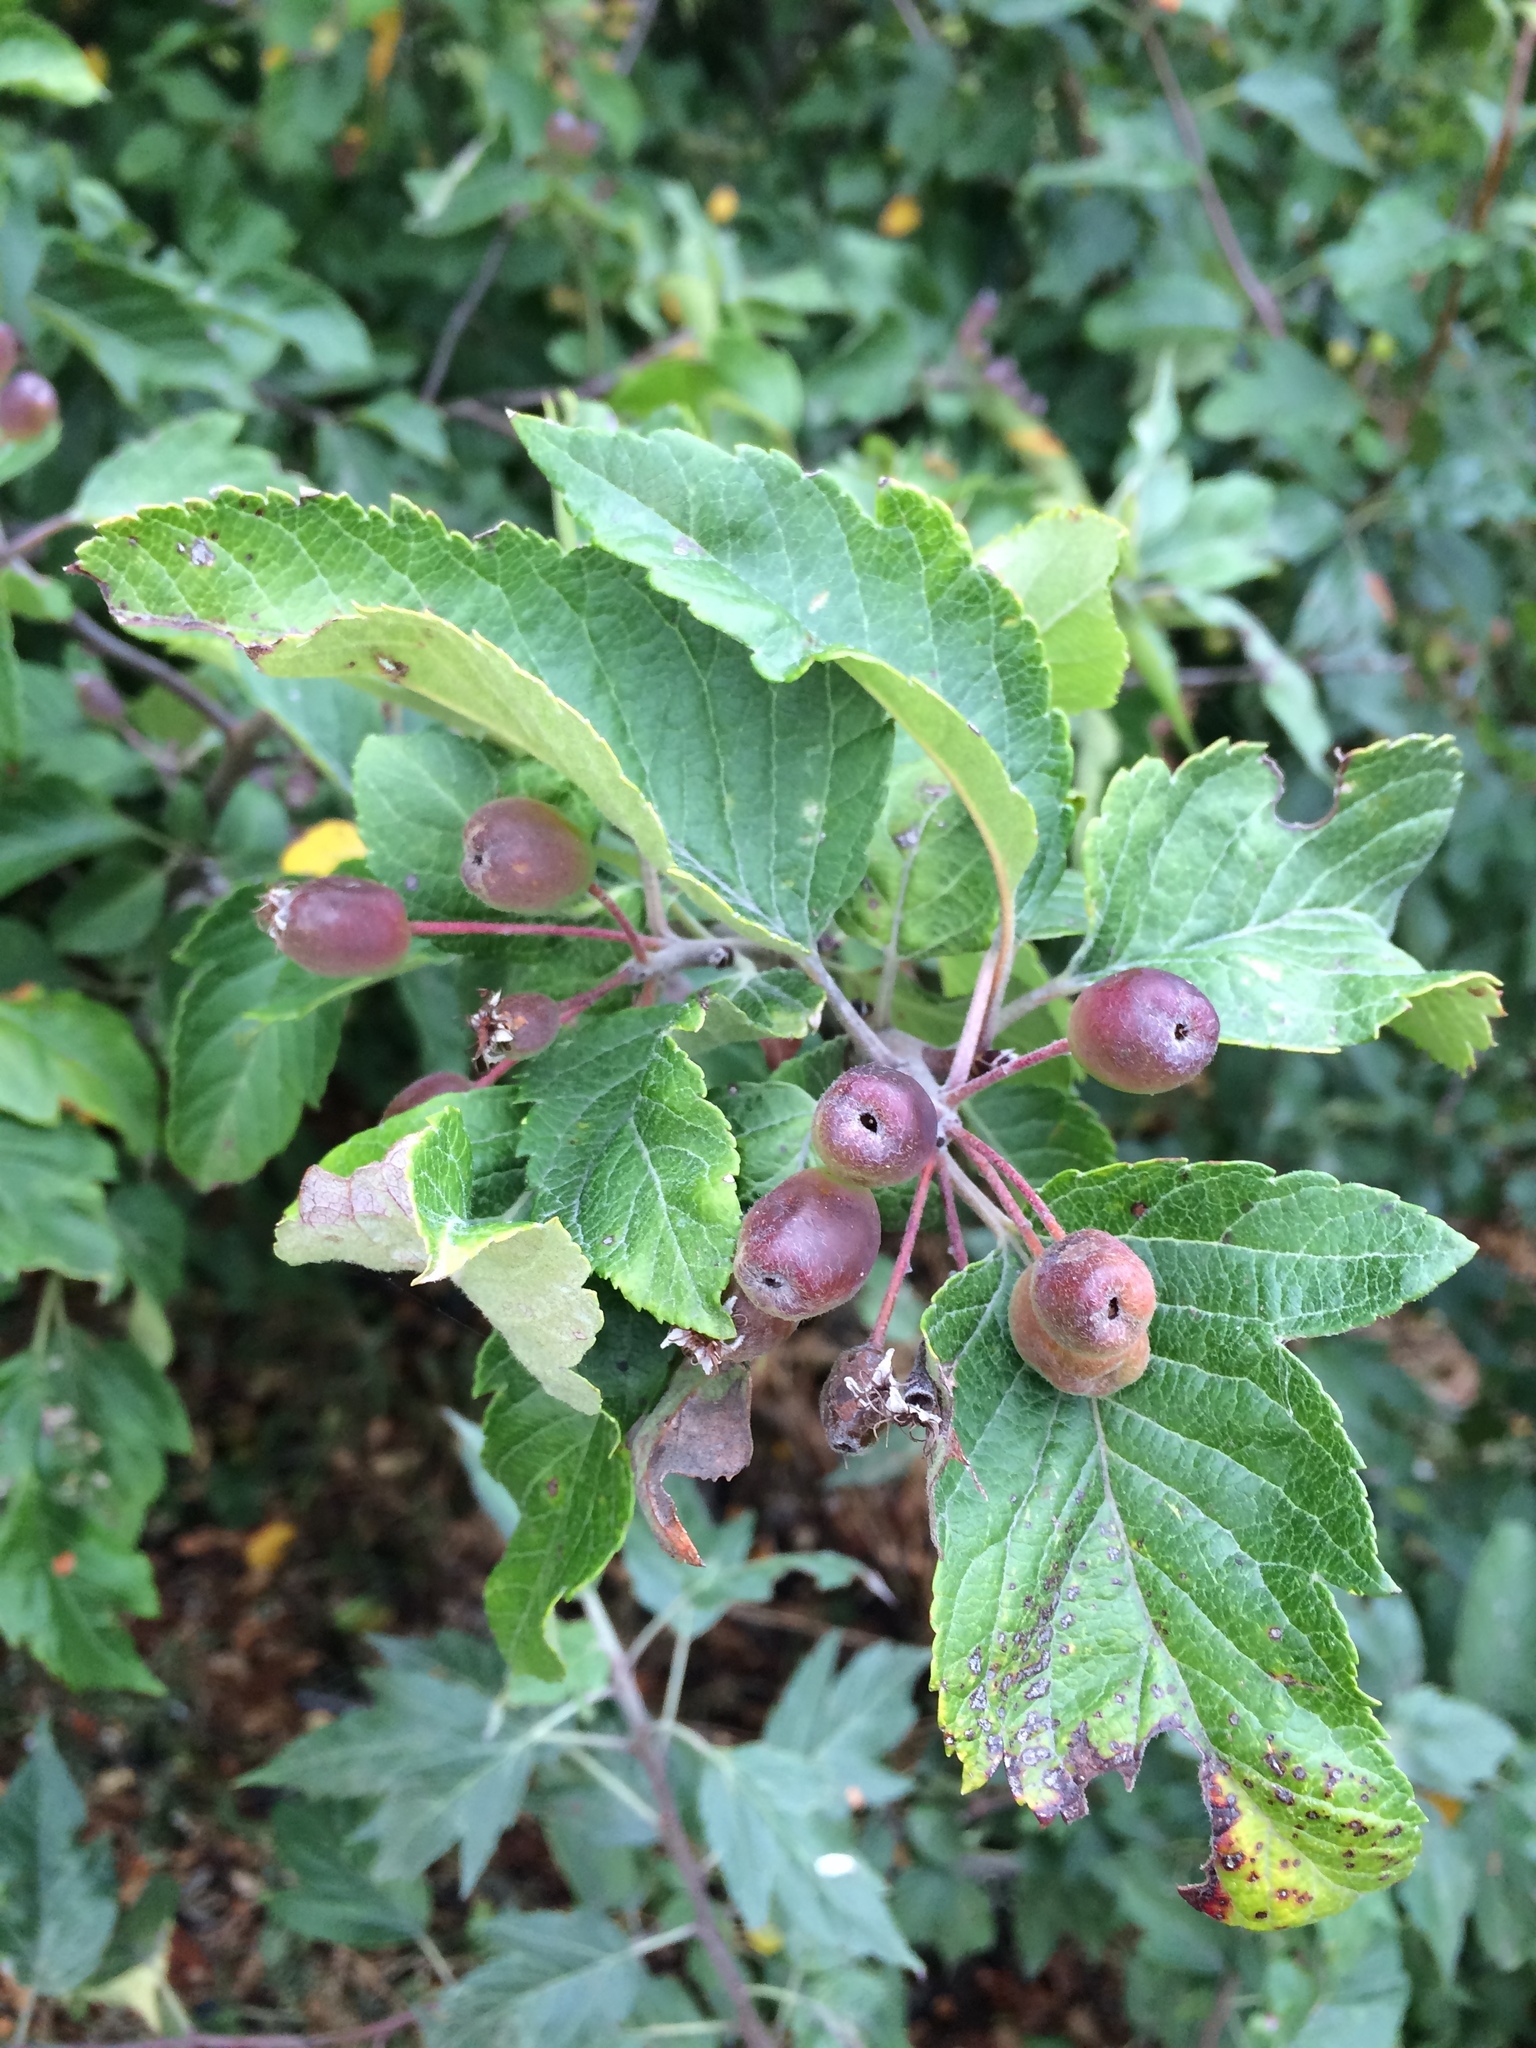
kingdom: Plantae
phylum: Tracheophyta
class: Magnoliopsida
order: Rosales
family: Rosaceae
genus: Malus
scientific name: Malus fusca
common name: Oregon crab apple
